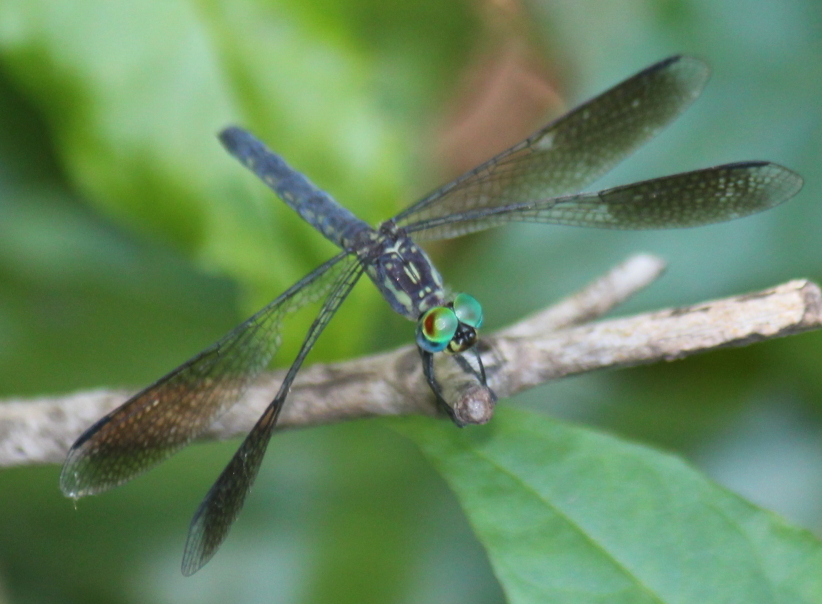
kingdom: Animalia
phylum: Arthropoda
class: Insecta
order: Odonata
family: Libellulidae
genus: Tetrathemis
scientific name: Tetrathemis polleni
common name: Black-splashed elf
